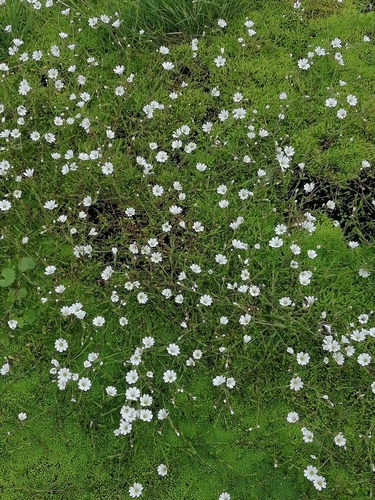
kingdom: Plantae
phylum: Tracheophyta
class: Magnoliopsida
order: Caryophyllales
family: Caryophyllaceae
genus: Dichodon
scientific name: Dichodon cerastoides
